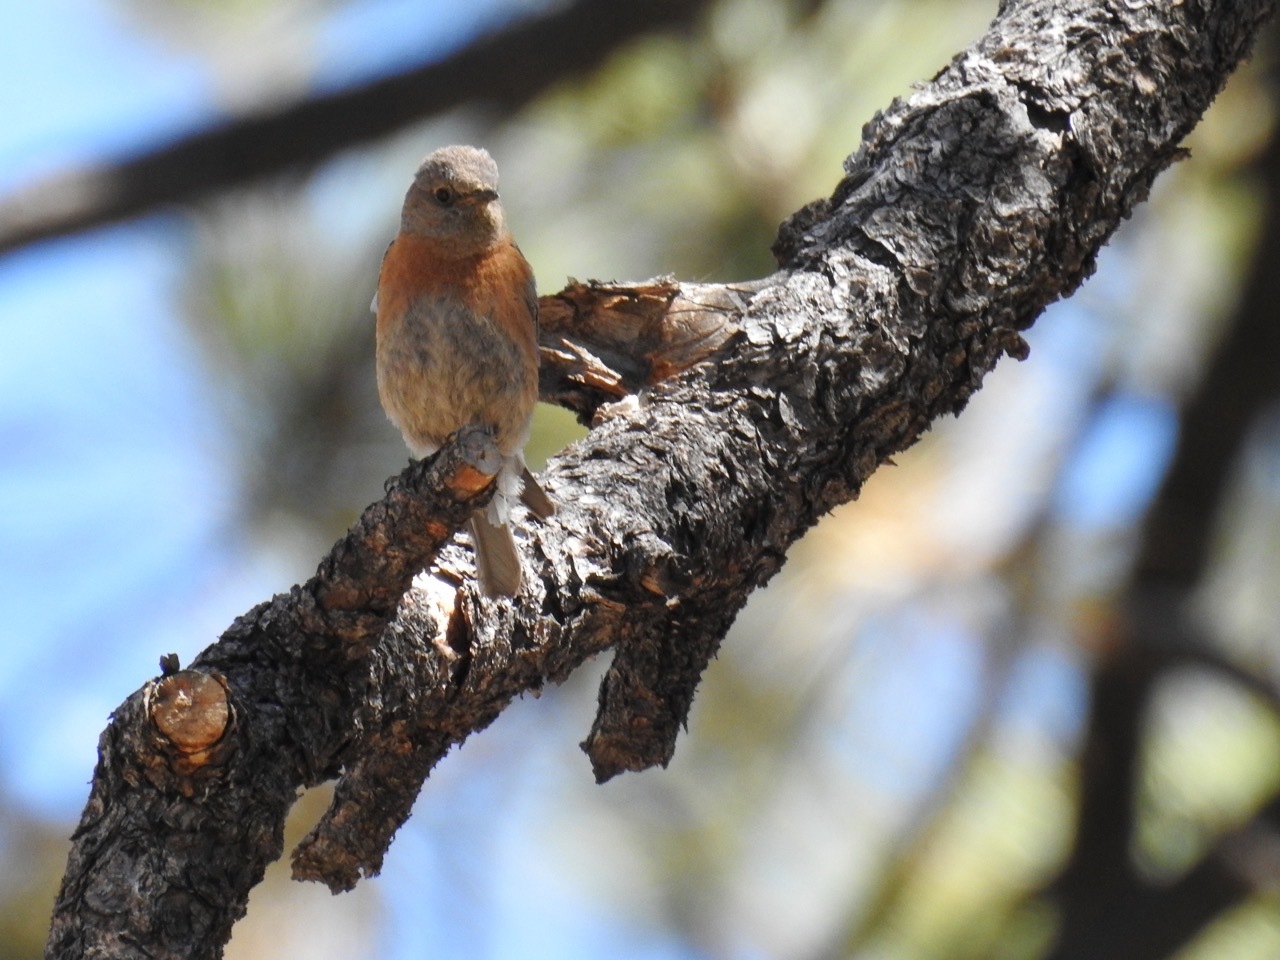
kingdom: Animalia
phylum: Chordata
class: Aves
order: Passeriformes
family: Turdidae
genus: Sialia
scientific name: Sialia mexicana
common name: Western bluebird
